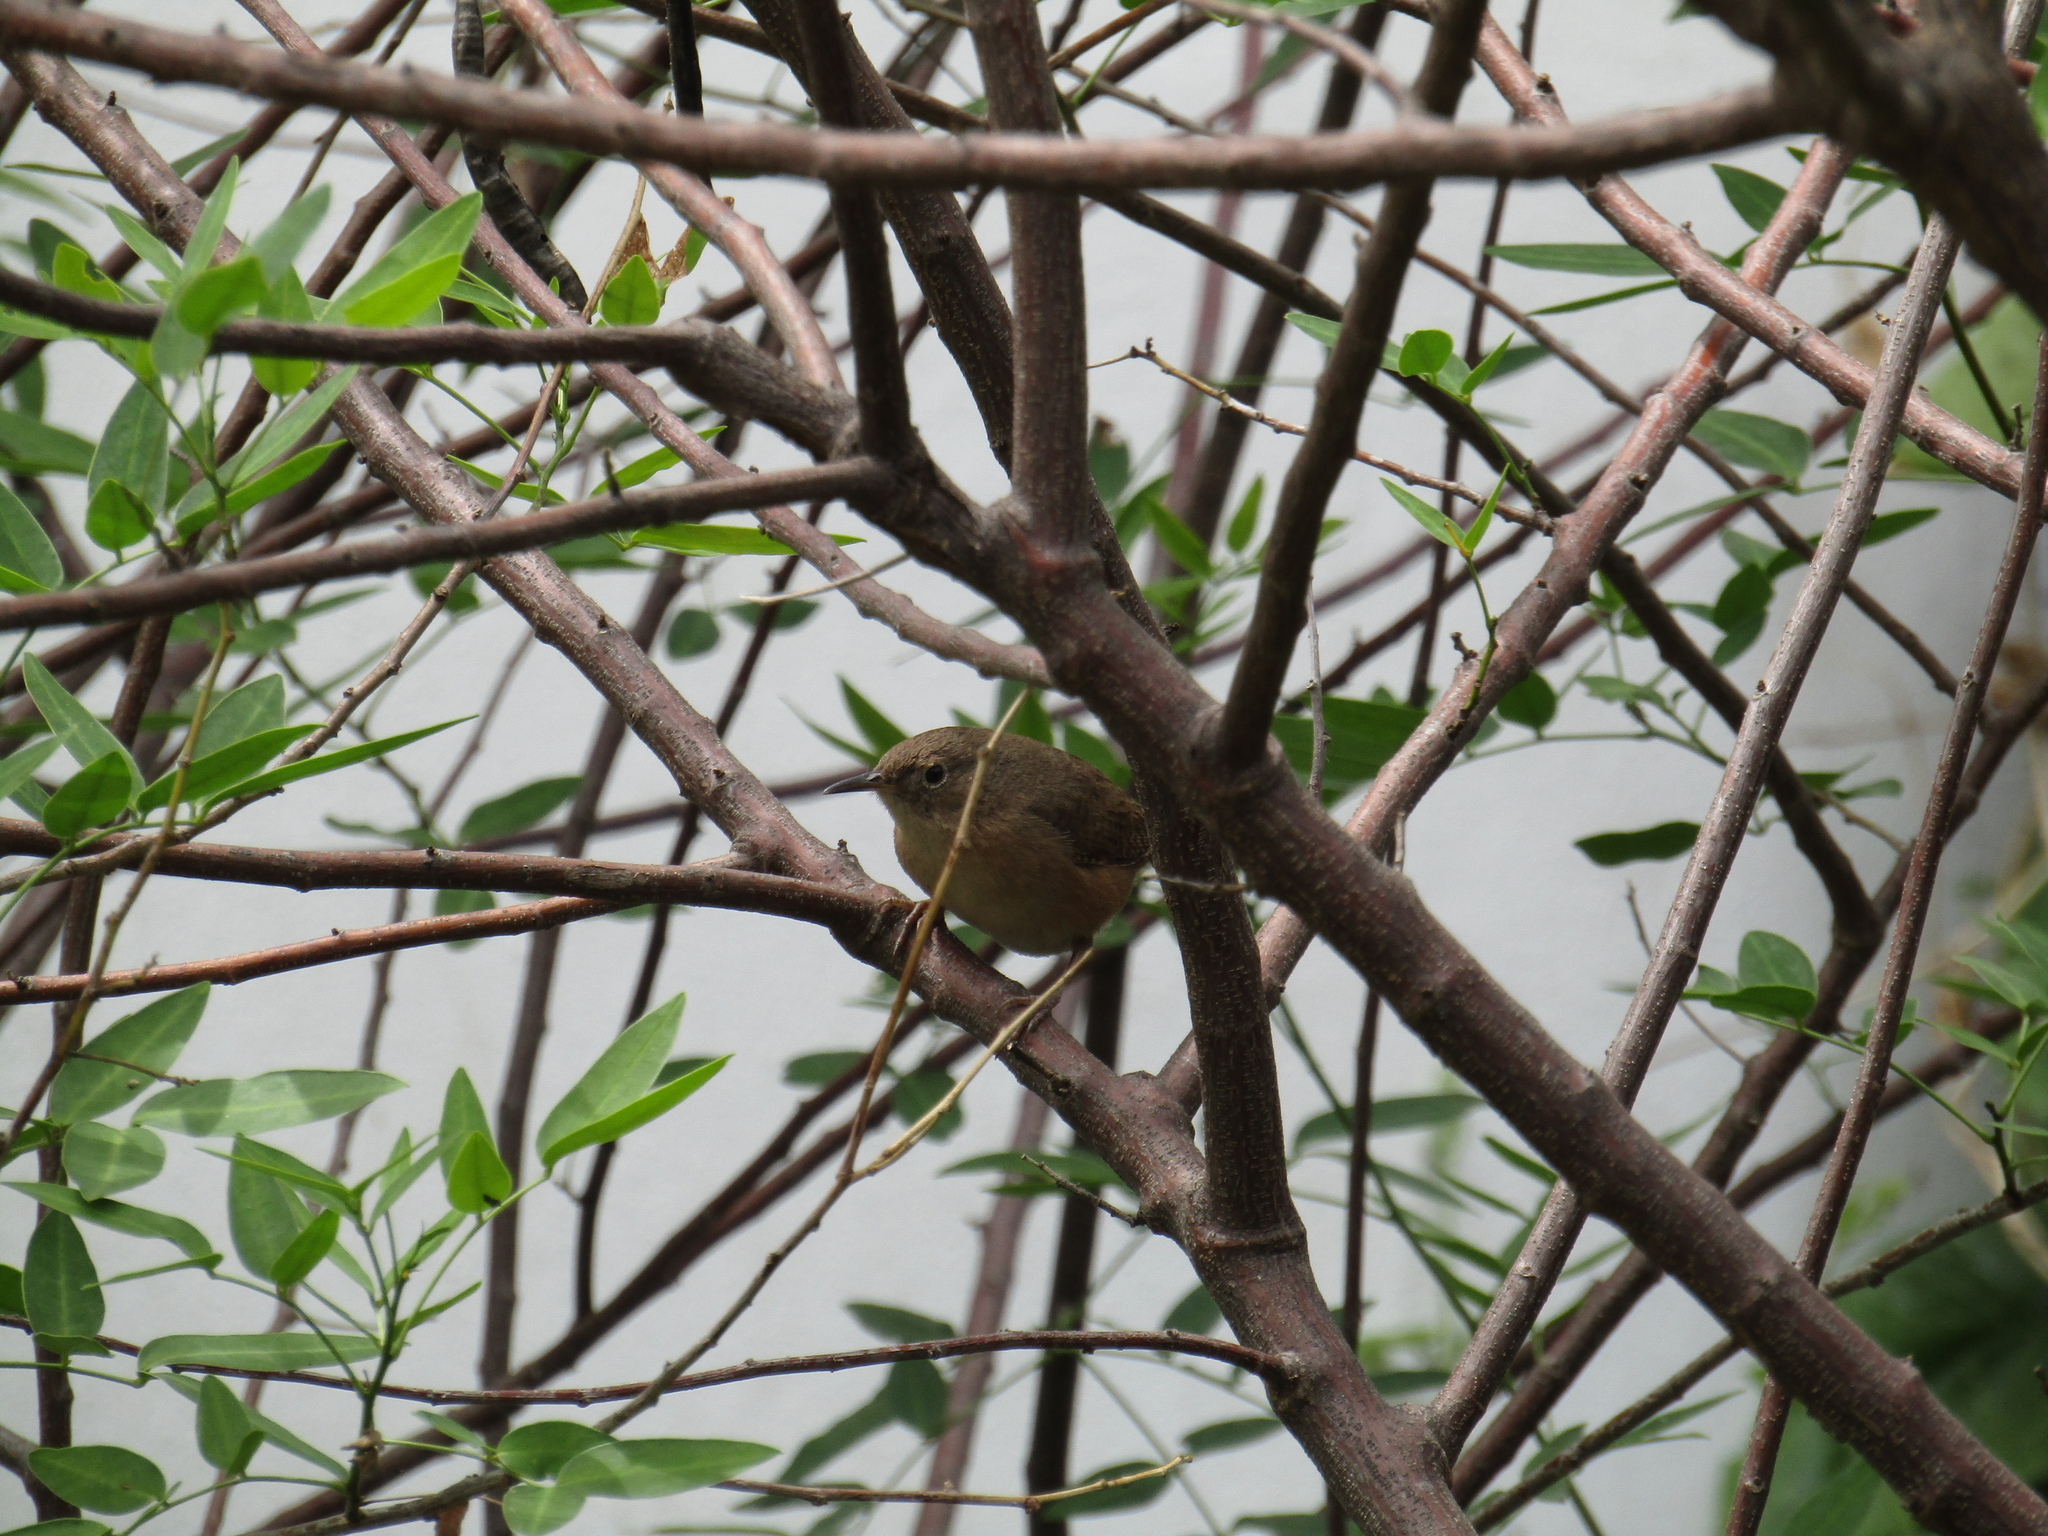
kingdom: Animalia
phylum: Chordata
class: Aves
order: Passeriformes
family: Troglodytidae
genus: Troglodytes
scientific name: Troglodytes aedon
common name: House wren
